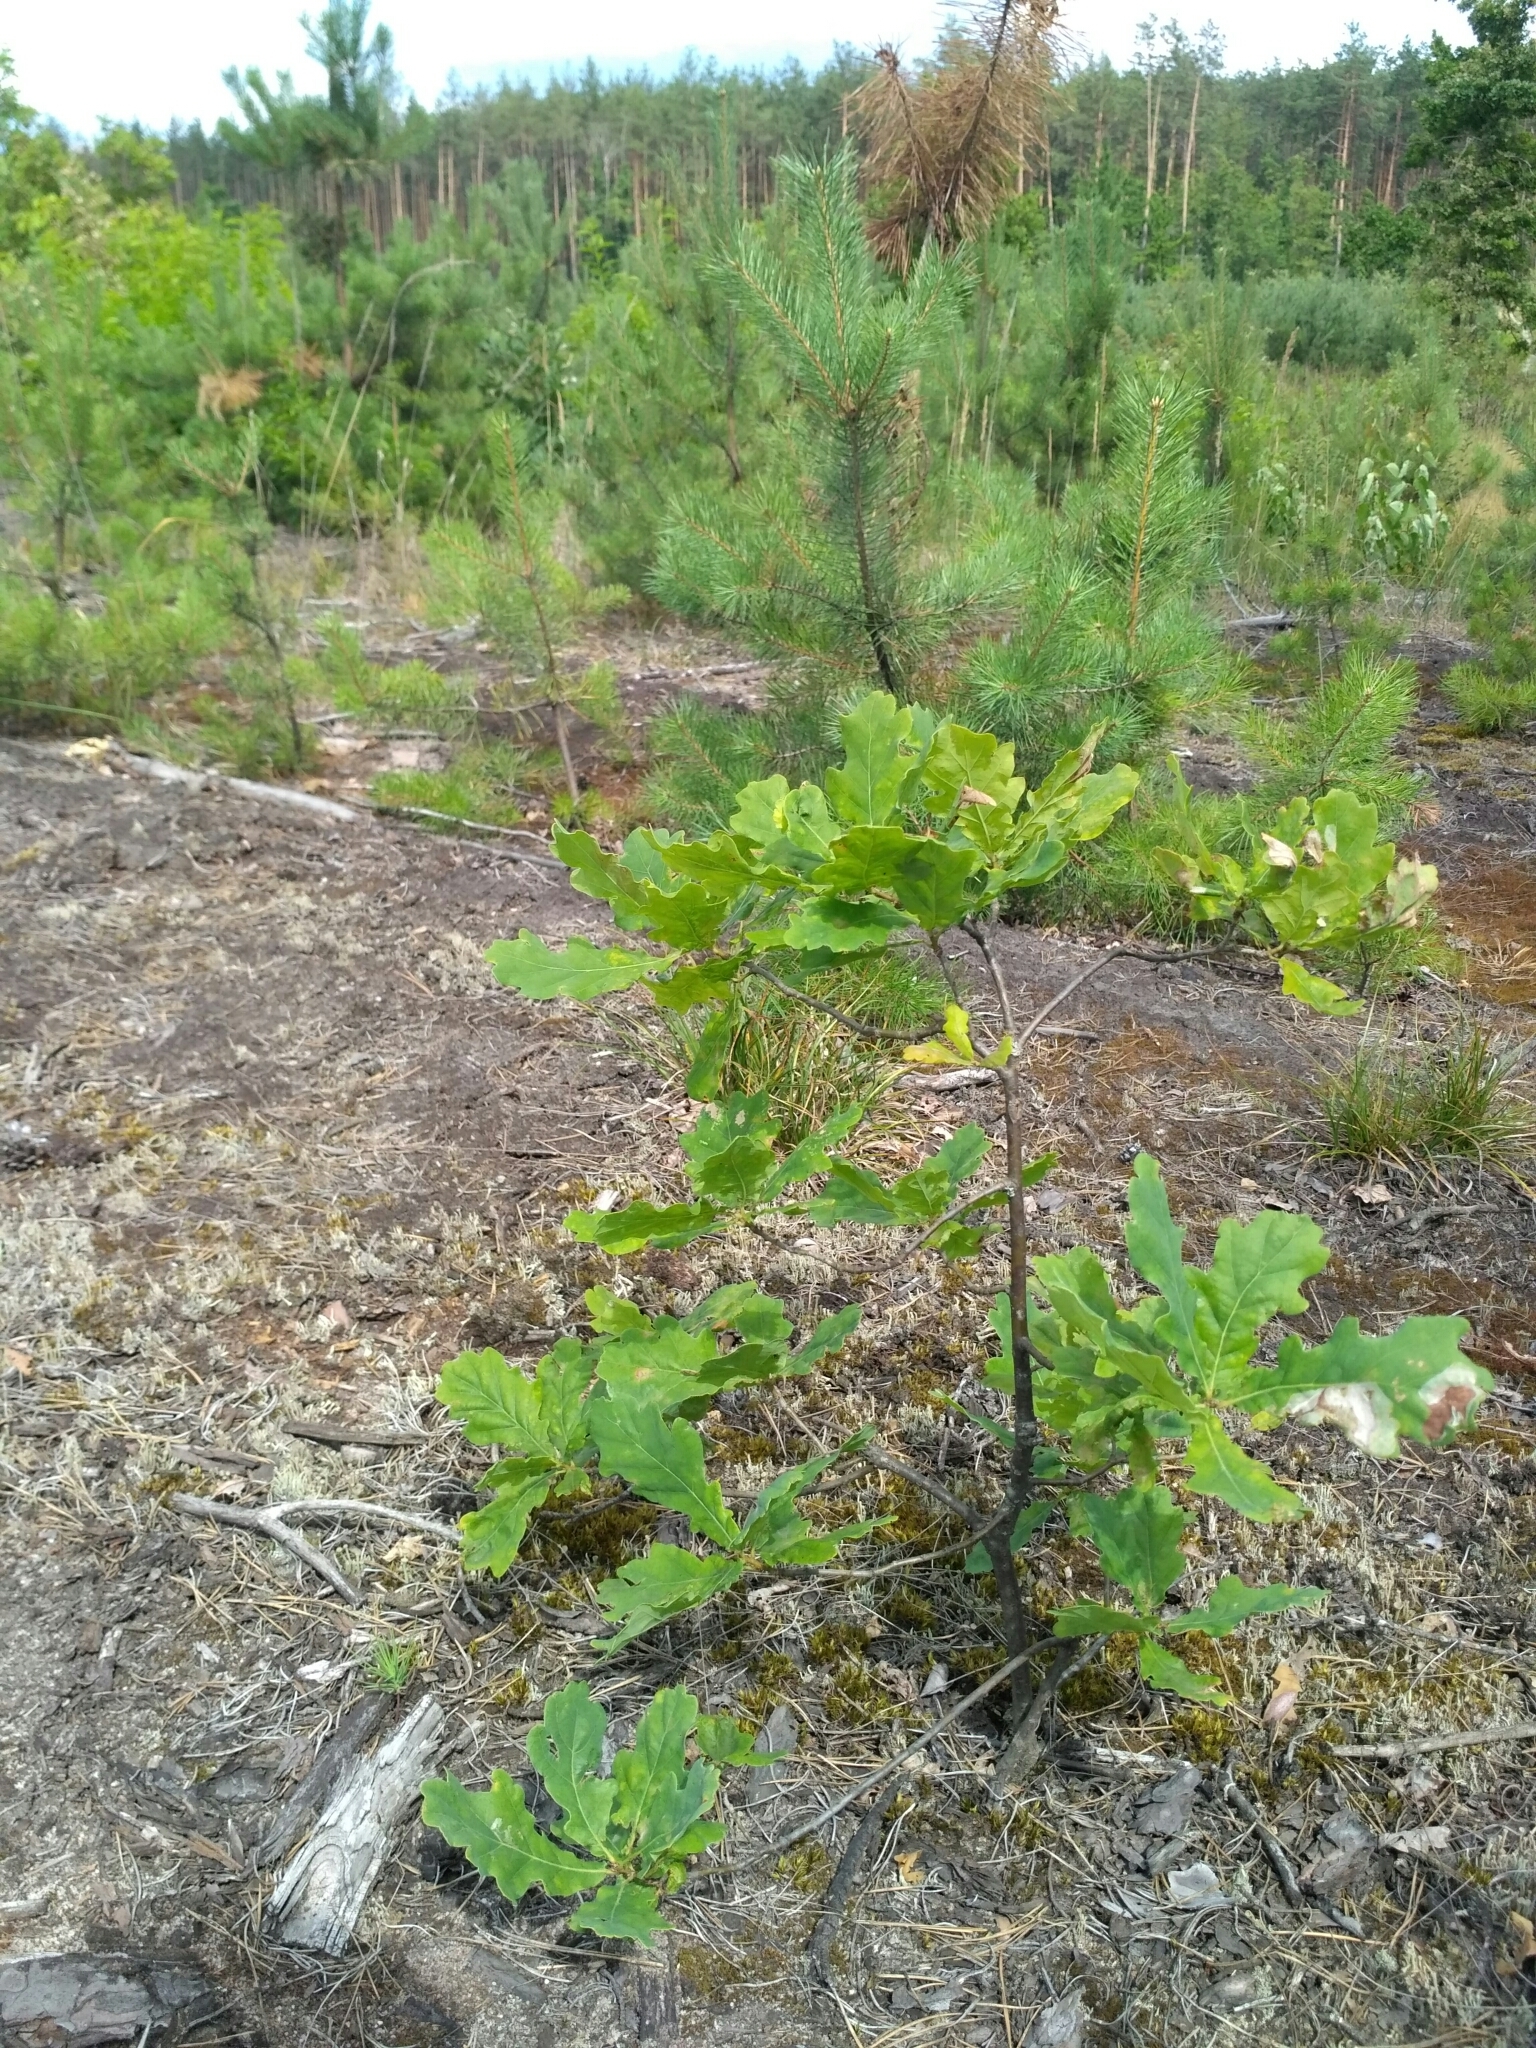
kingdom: Plantae
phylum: Tracheophyta
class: Magnoliopsida
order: Fagales
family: Fagaceae
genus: Quercus
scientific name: Quercus robur
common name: Pedunculate oak
